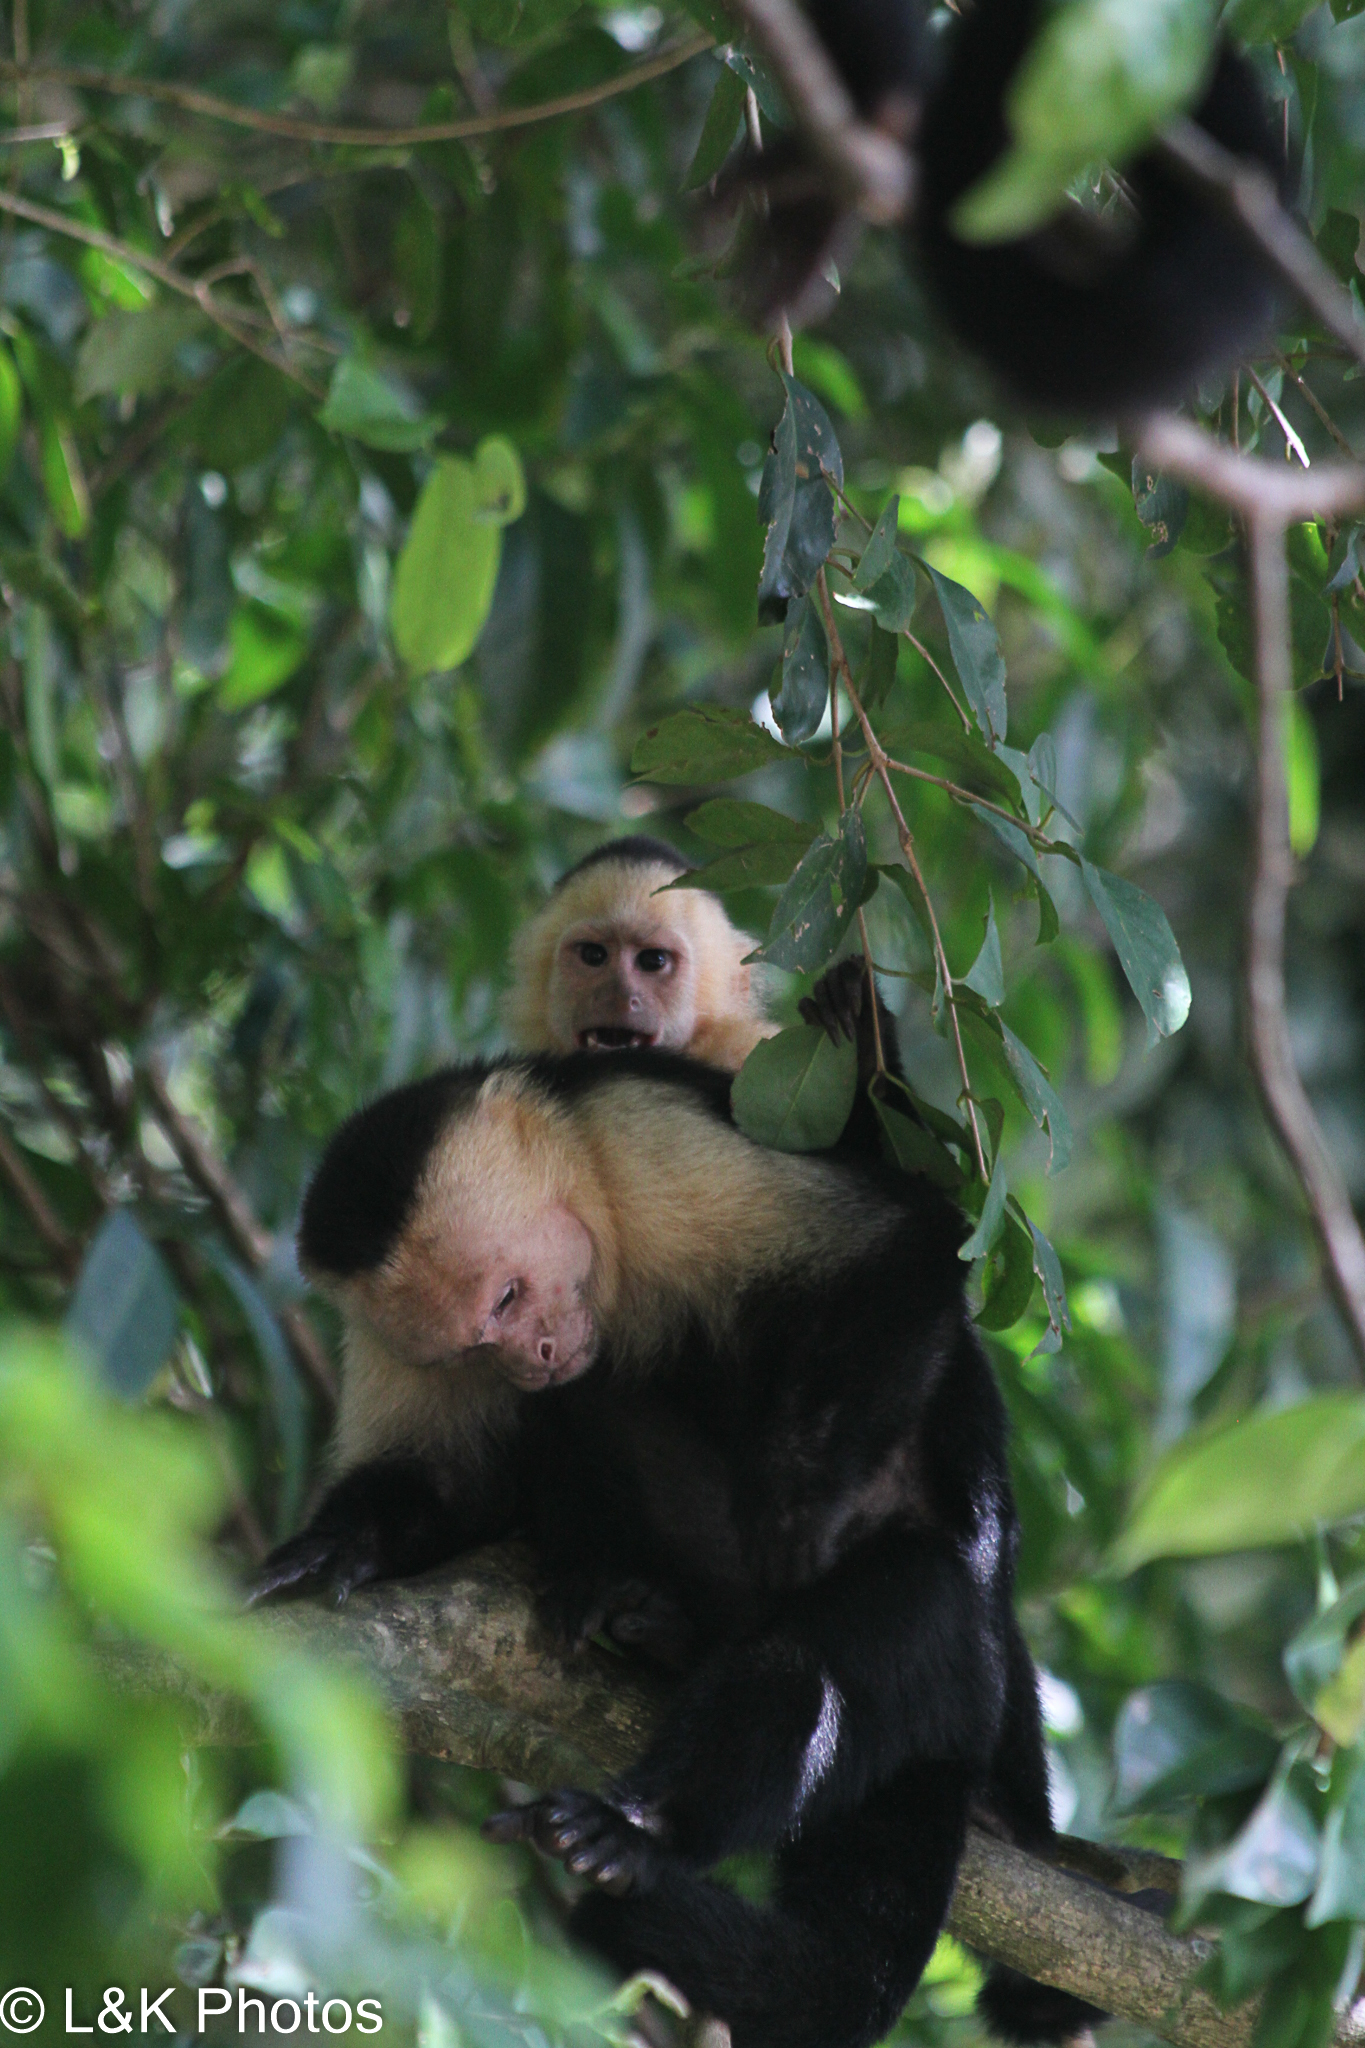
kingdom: Animalia
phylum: Chordata
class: Mammalia
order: Primates
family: Cebidae
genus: Cebus
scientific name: Cebus imitator
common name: Panamanian white-faced capuchin
